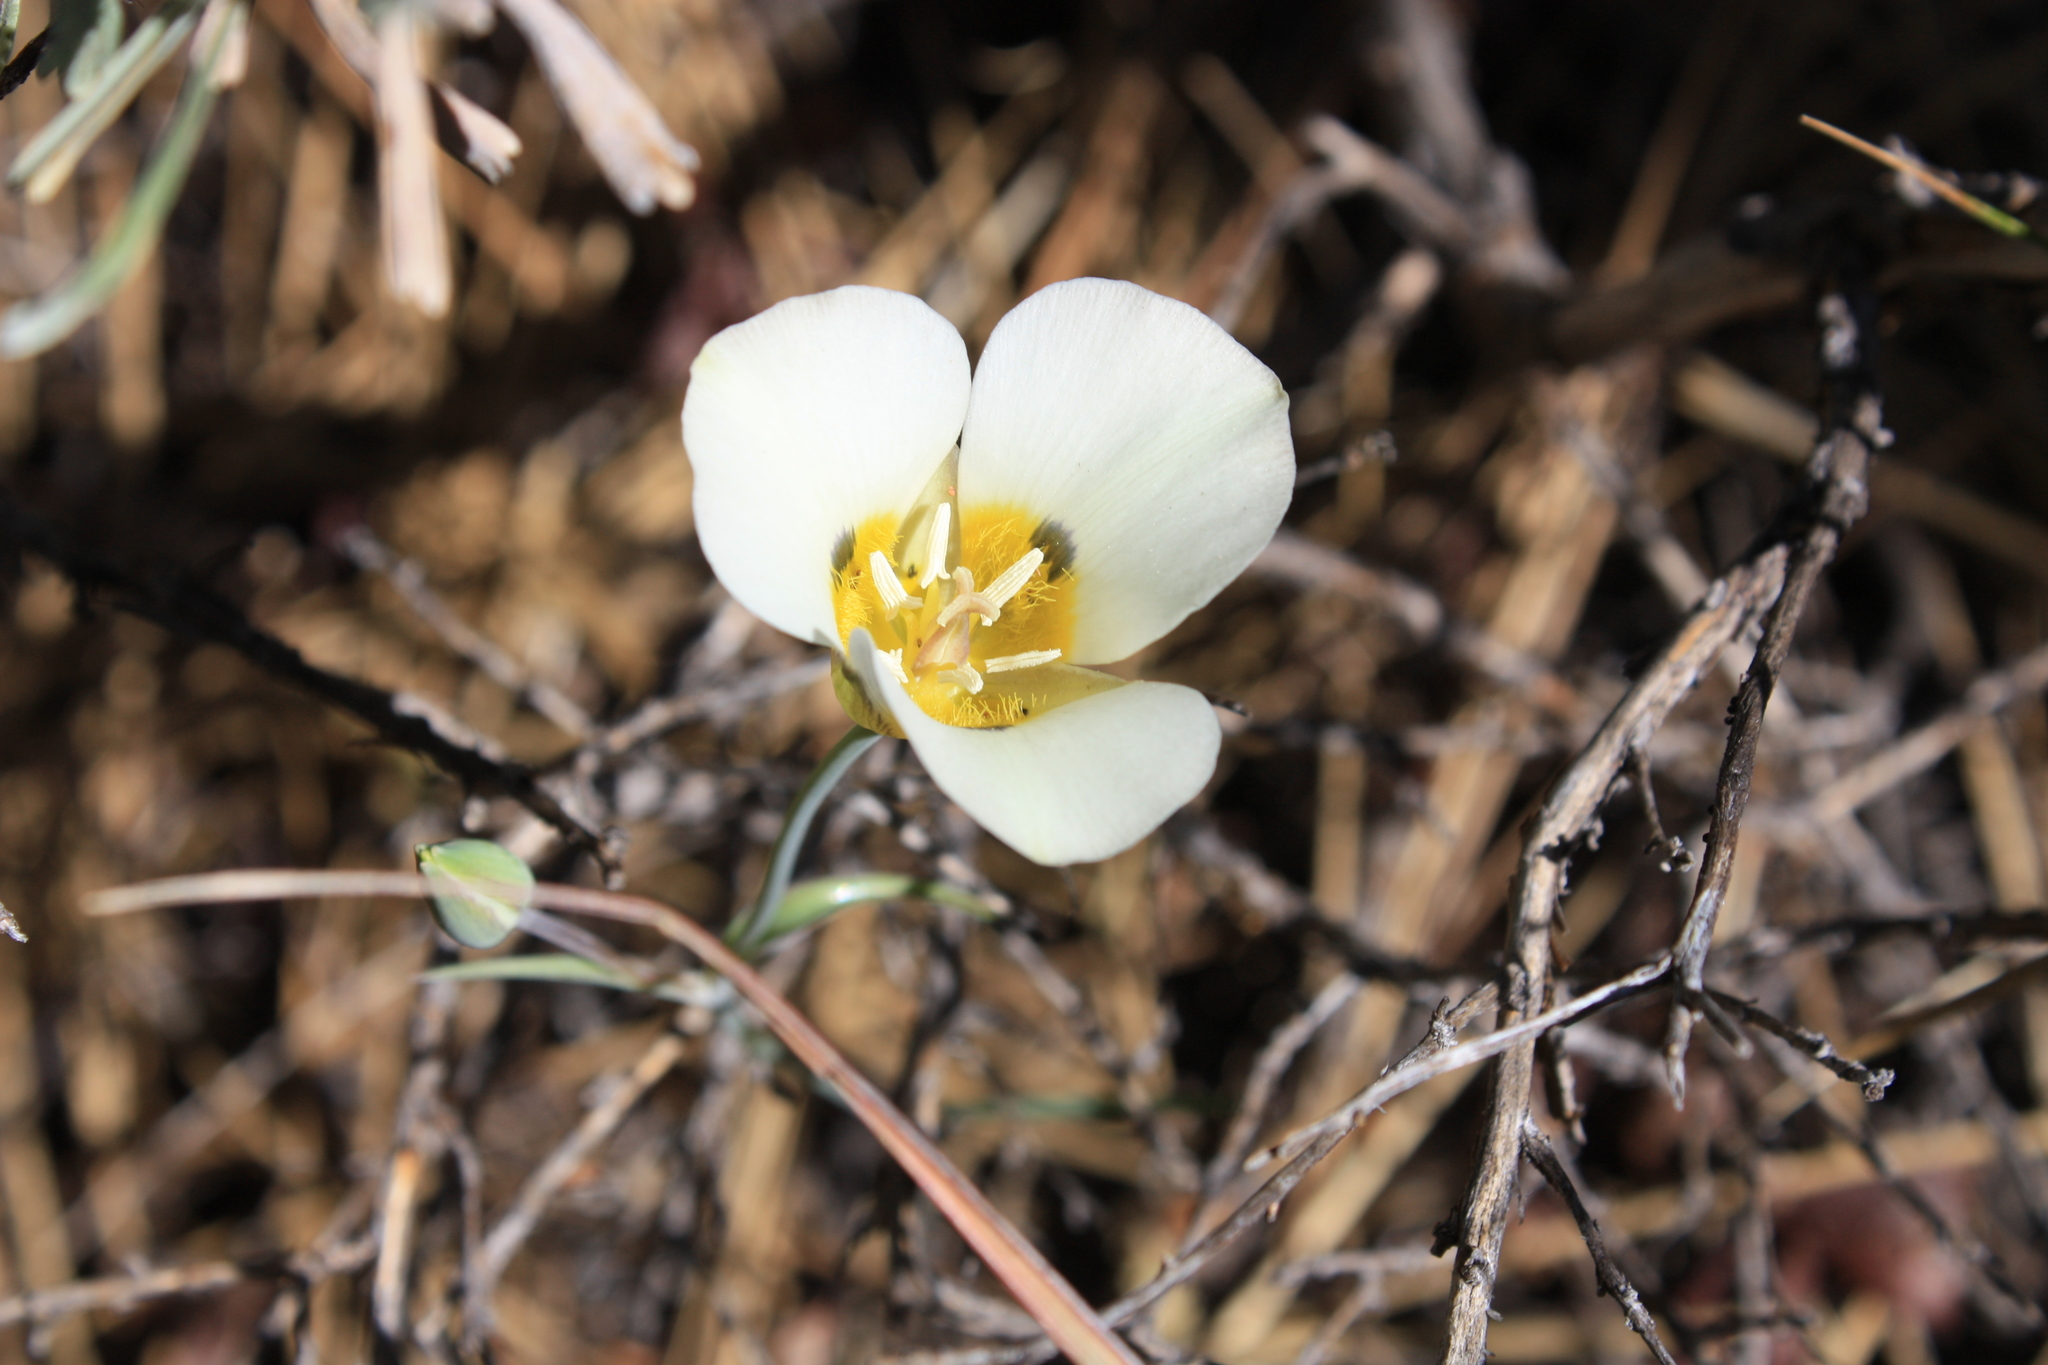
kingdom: Plantae
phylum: Tracheophyta
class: Liliopsida
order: Liliales
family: Liliaceae
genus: Calochortus
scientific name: Calochortus leichtlinii
